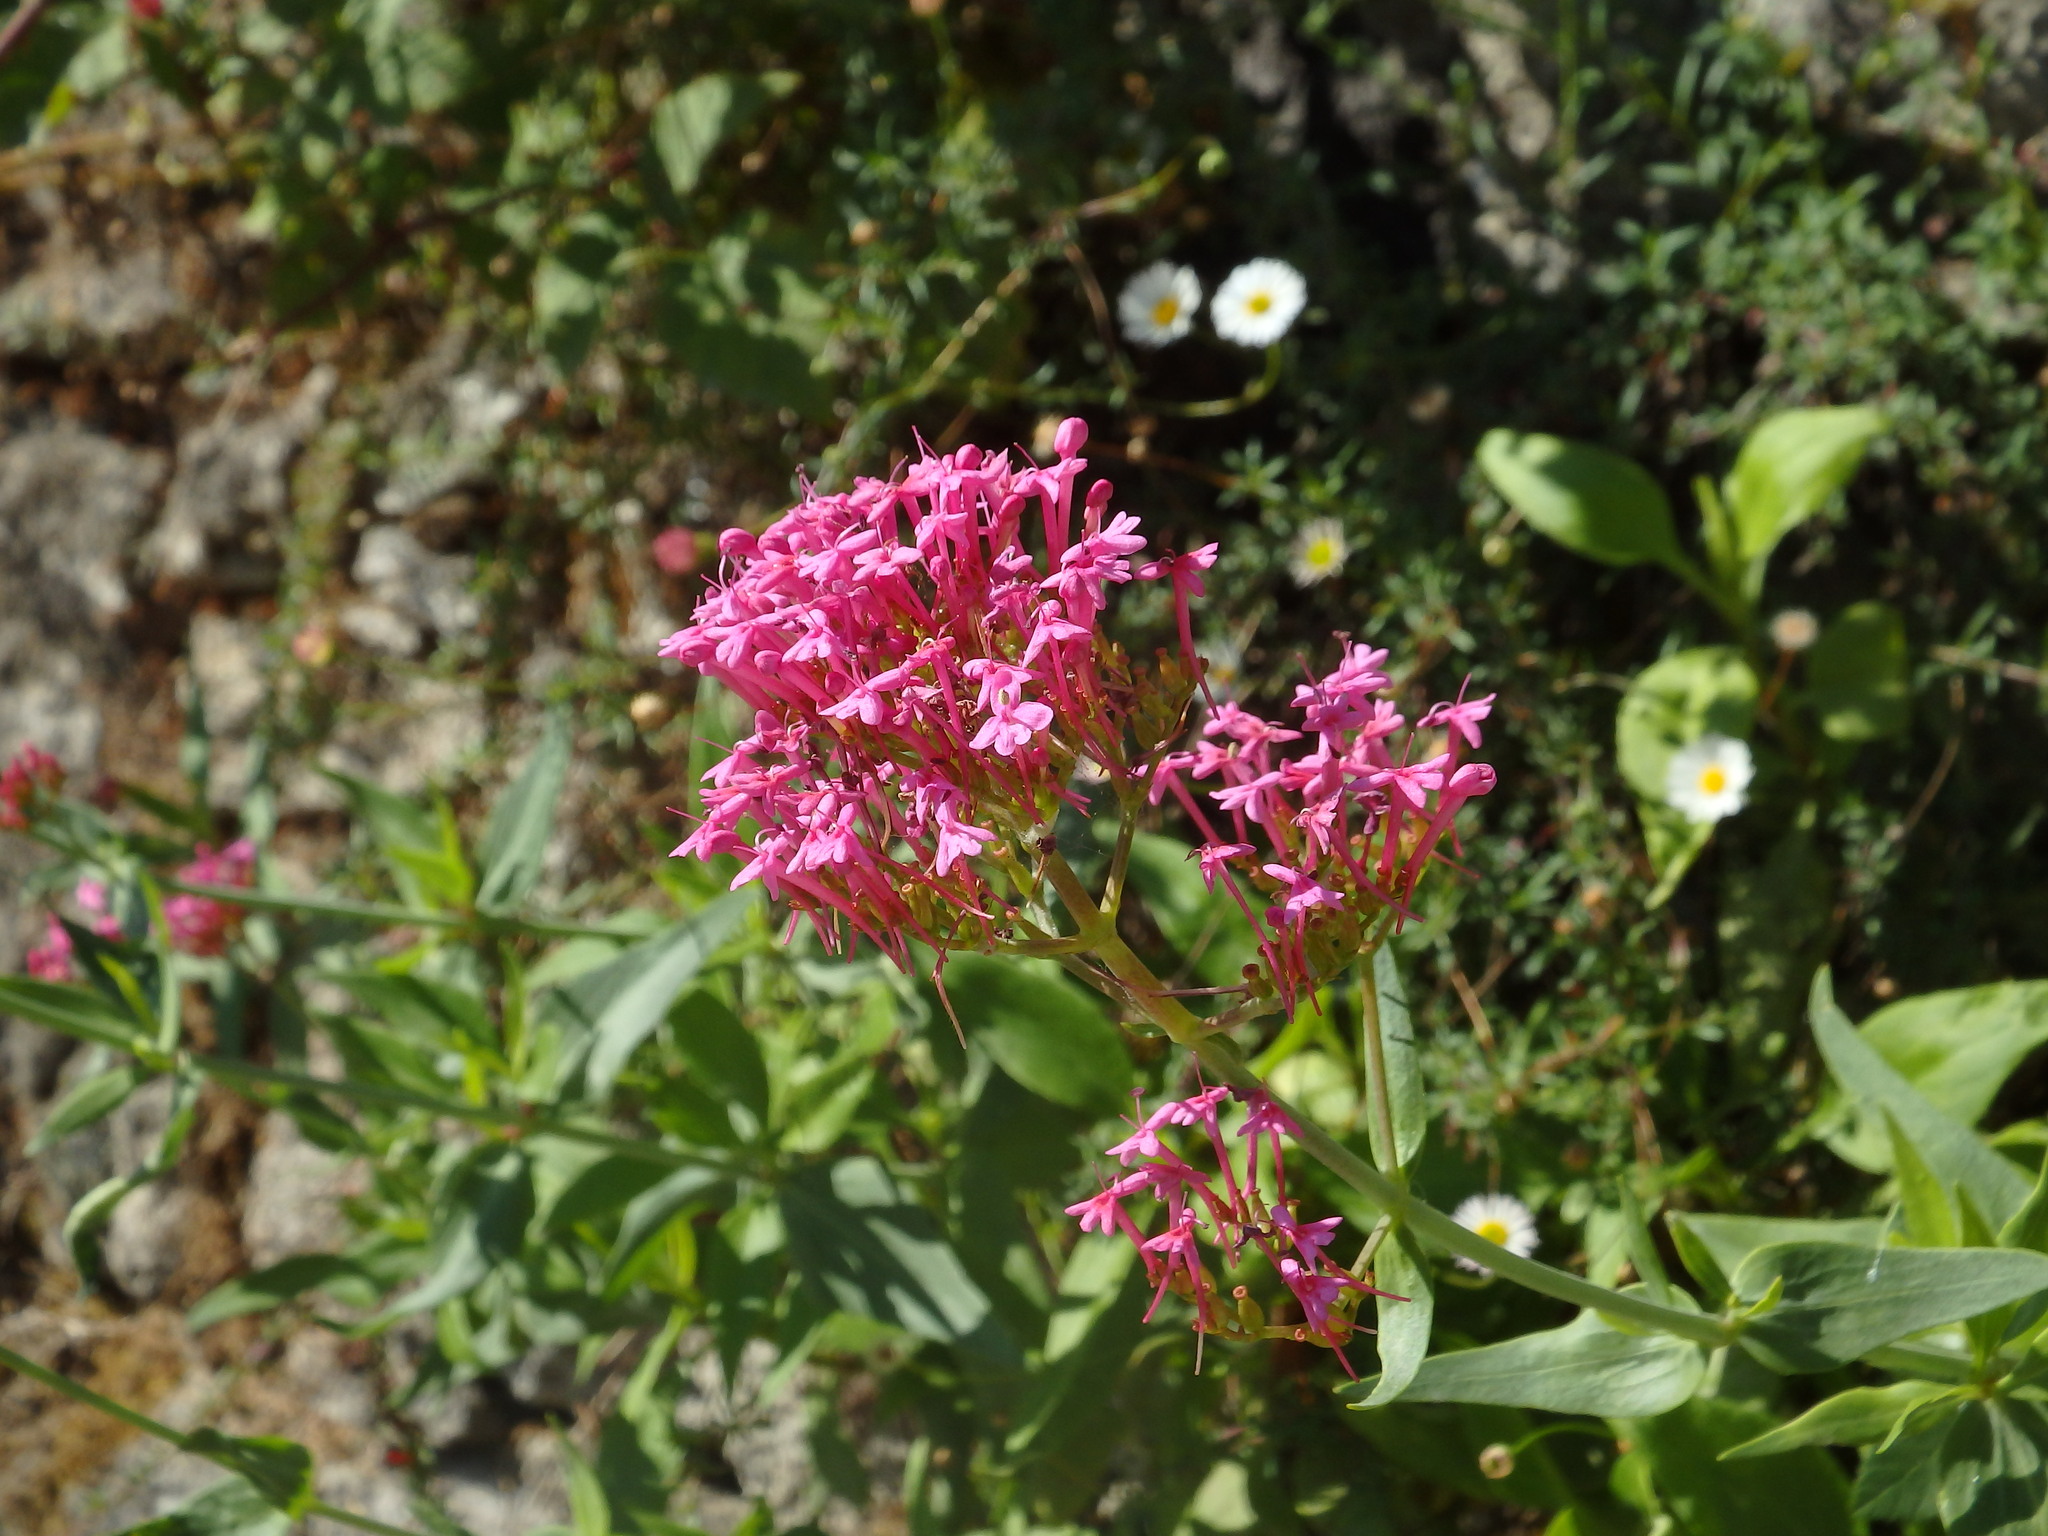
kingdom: Plantae
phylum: Tracheophyta
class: Magnoliopsida
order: Dipsacales
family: Caprifoliaceae
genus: Centranthus
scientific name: Centranthus ruber
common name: Red valerian
